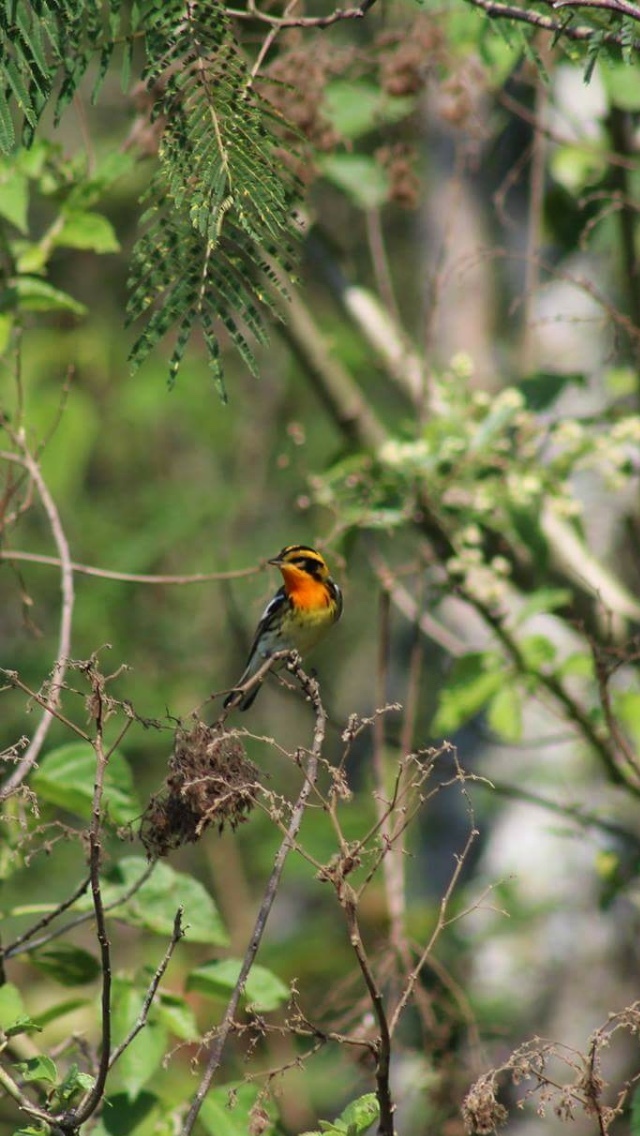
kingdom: Animalia
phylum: Chordata
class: Aves
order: Passeriformes
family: Parulidae
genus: Setophaga
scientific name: Setophaga fusca
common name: Blackburnian warbler
